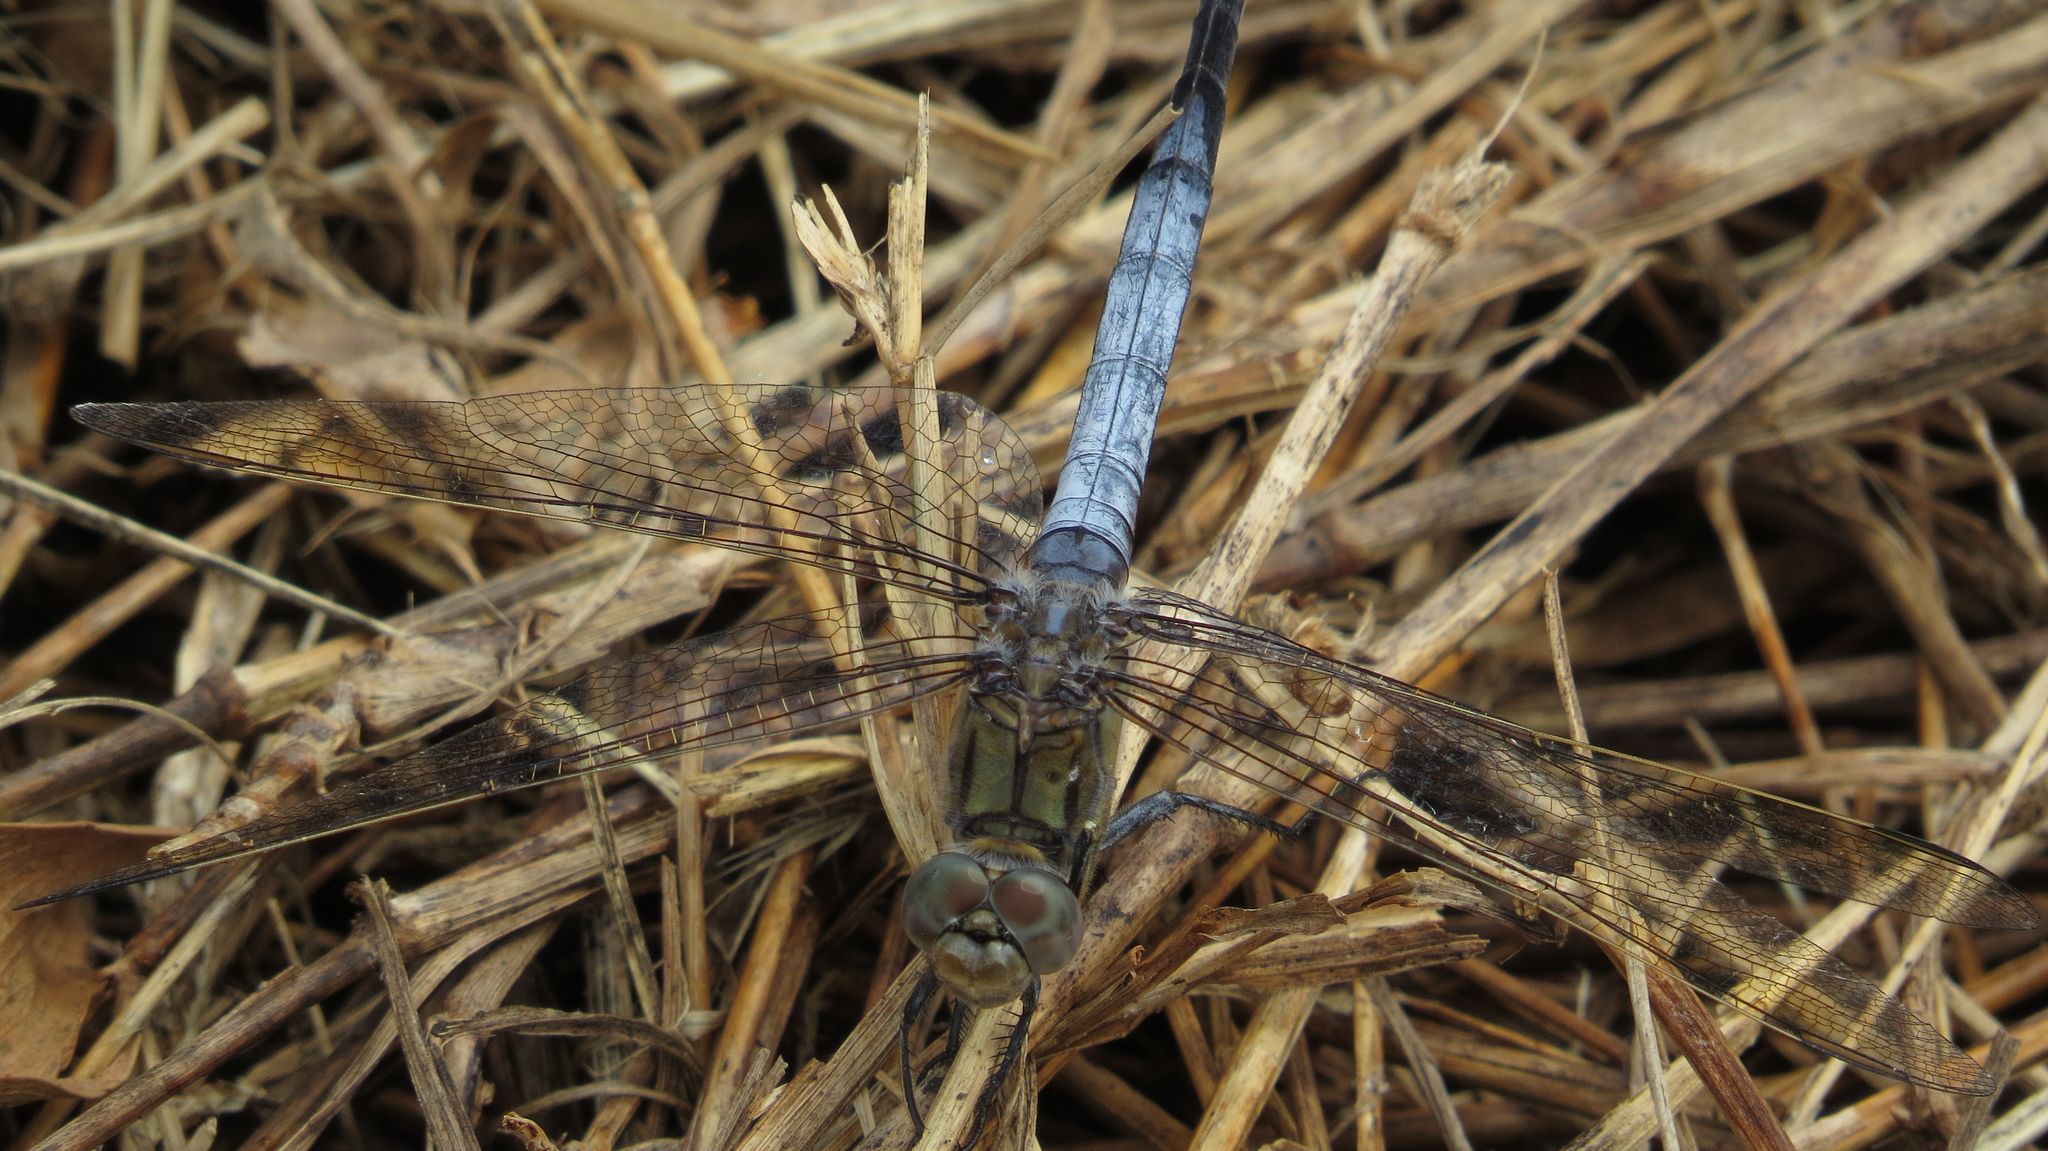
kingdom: Animalia
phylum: Arthropoda
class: Insecta
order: Odonata
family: Libellulidae
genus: Orthetrum
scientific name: Orthetrum caledonicum
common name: Blue skimmer
